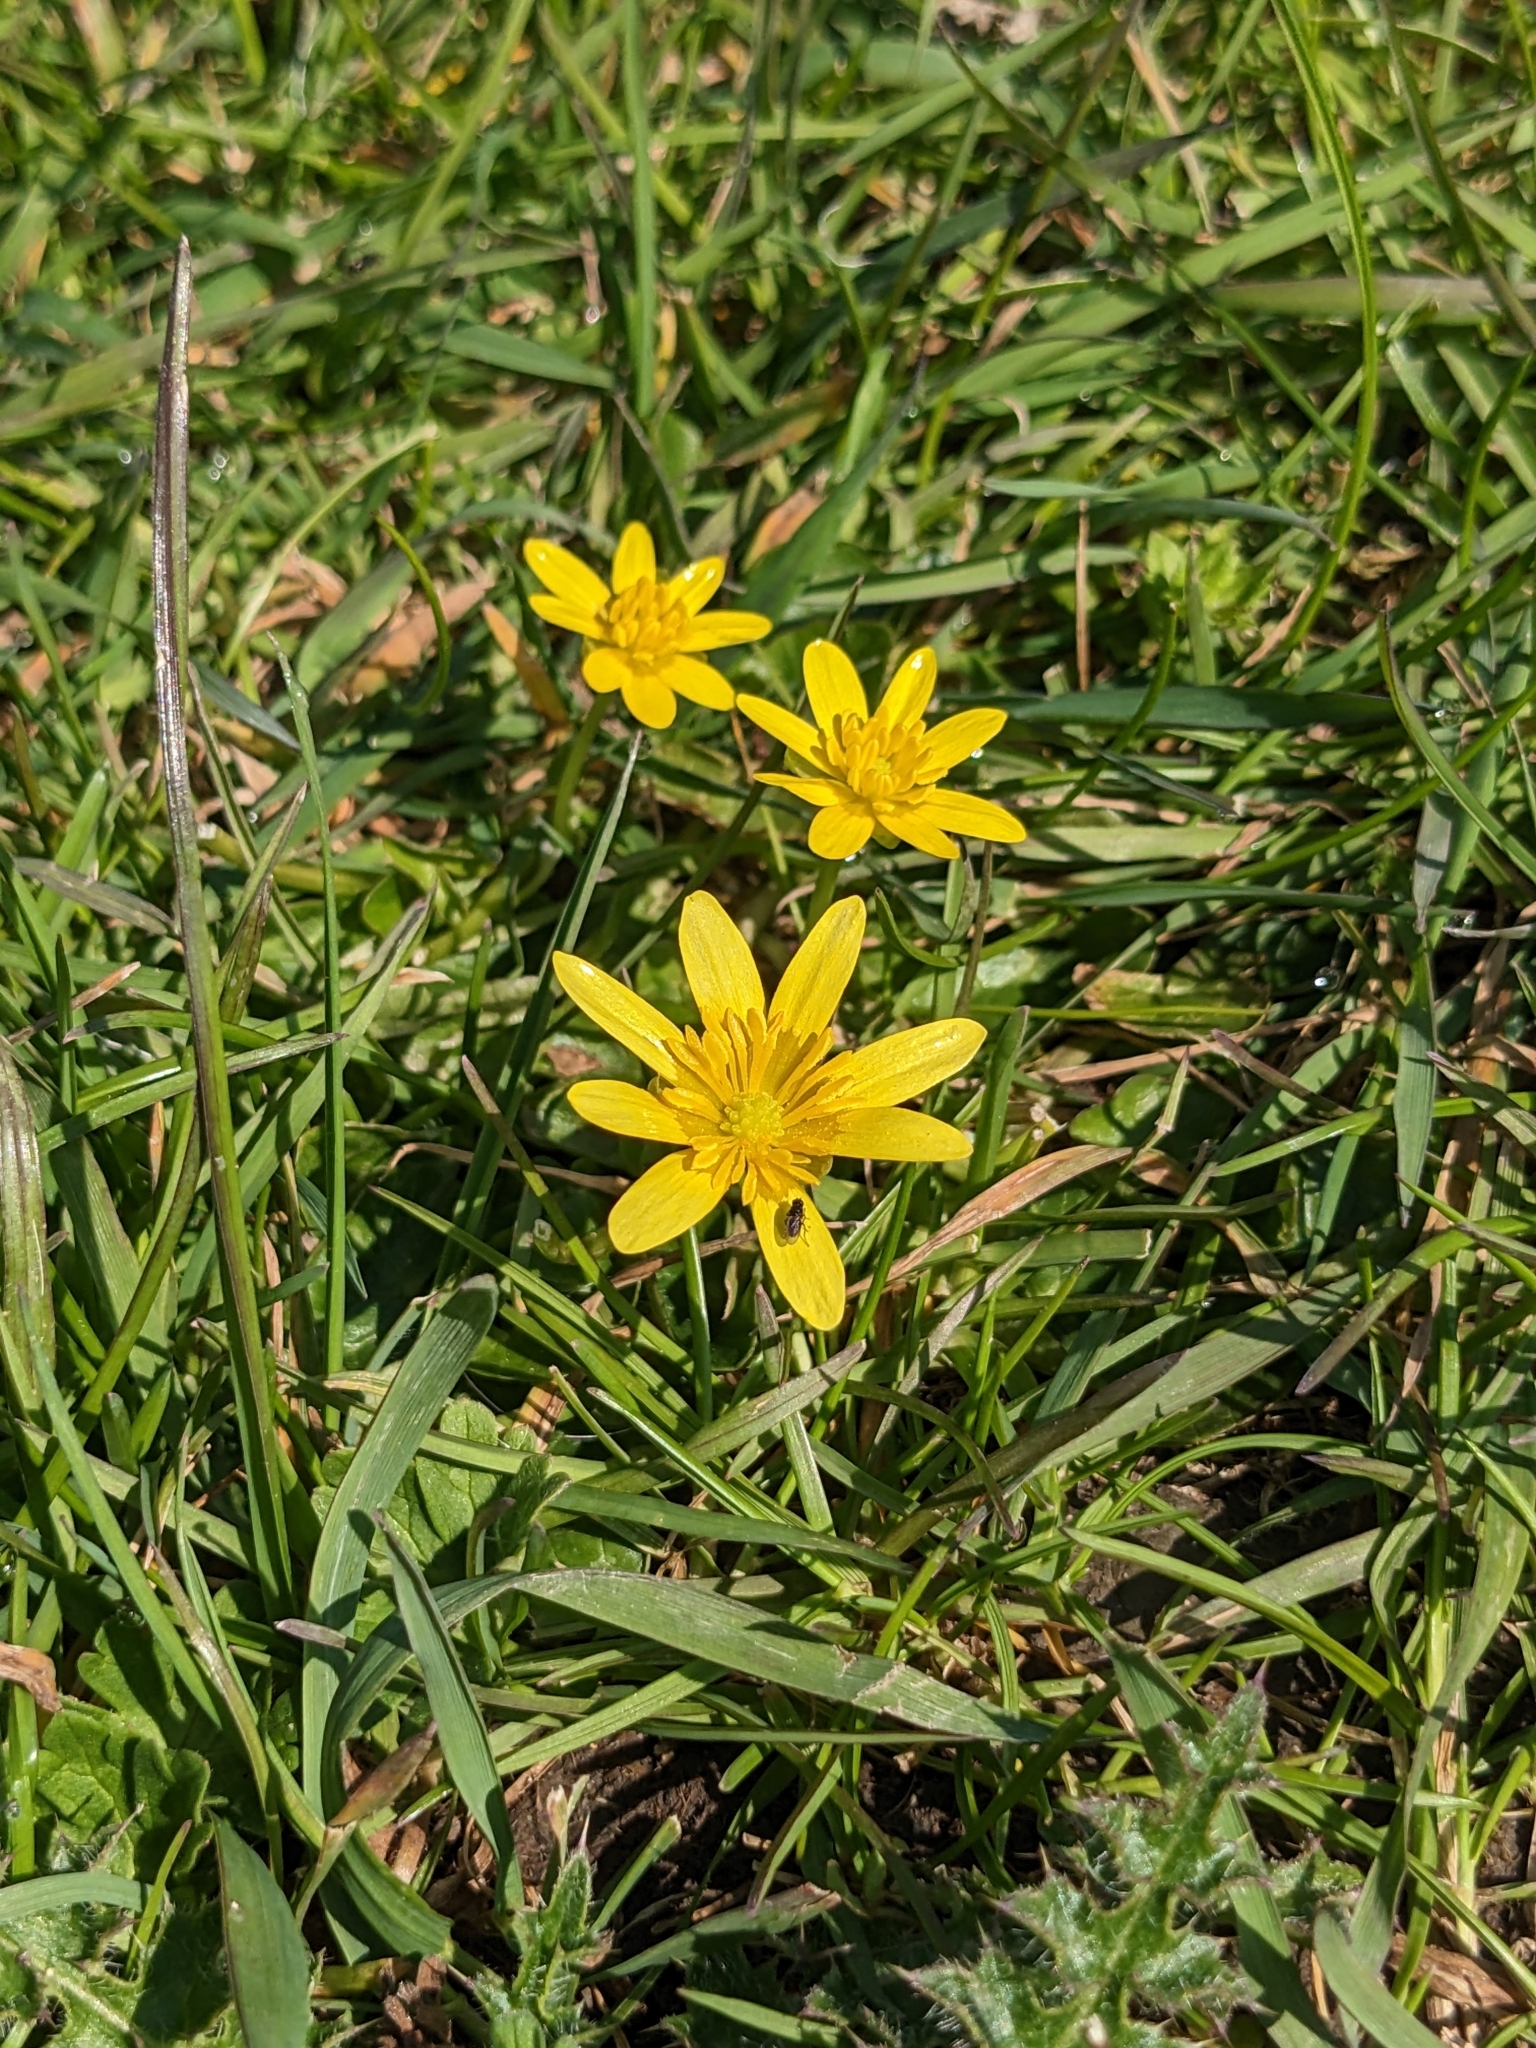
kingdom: Plantae
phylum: Tracheophyta
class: Magnoliopsida
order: Ranunculales
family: Ranunculaceae
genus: Ficaria
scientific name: Ficaria verna
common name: Lesser celandine
